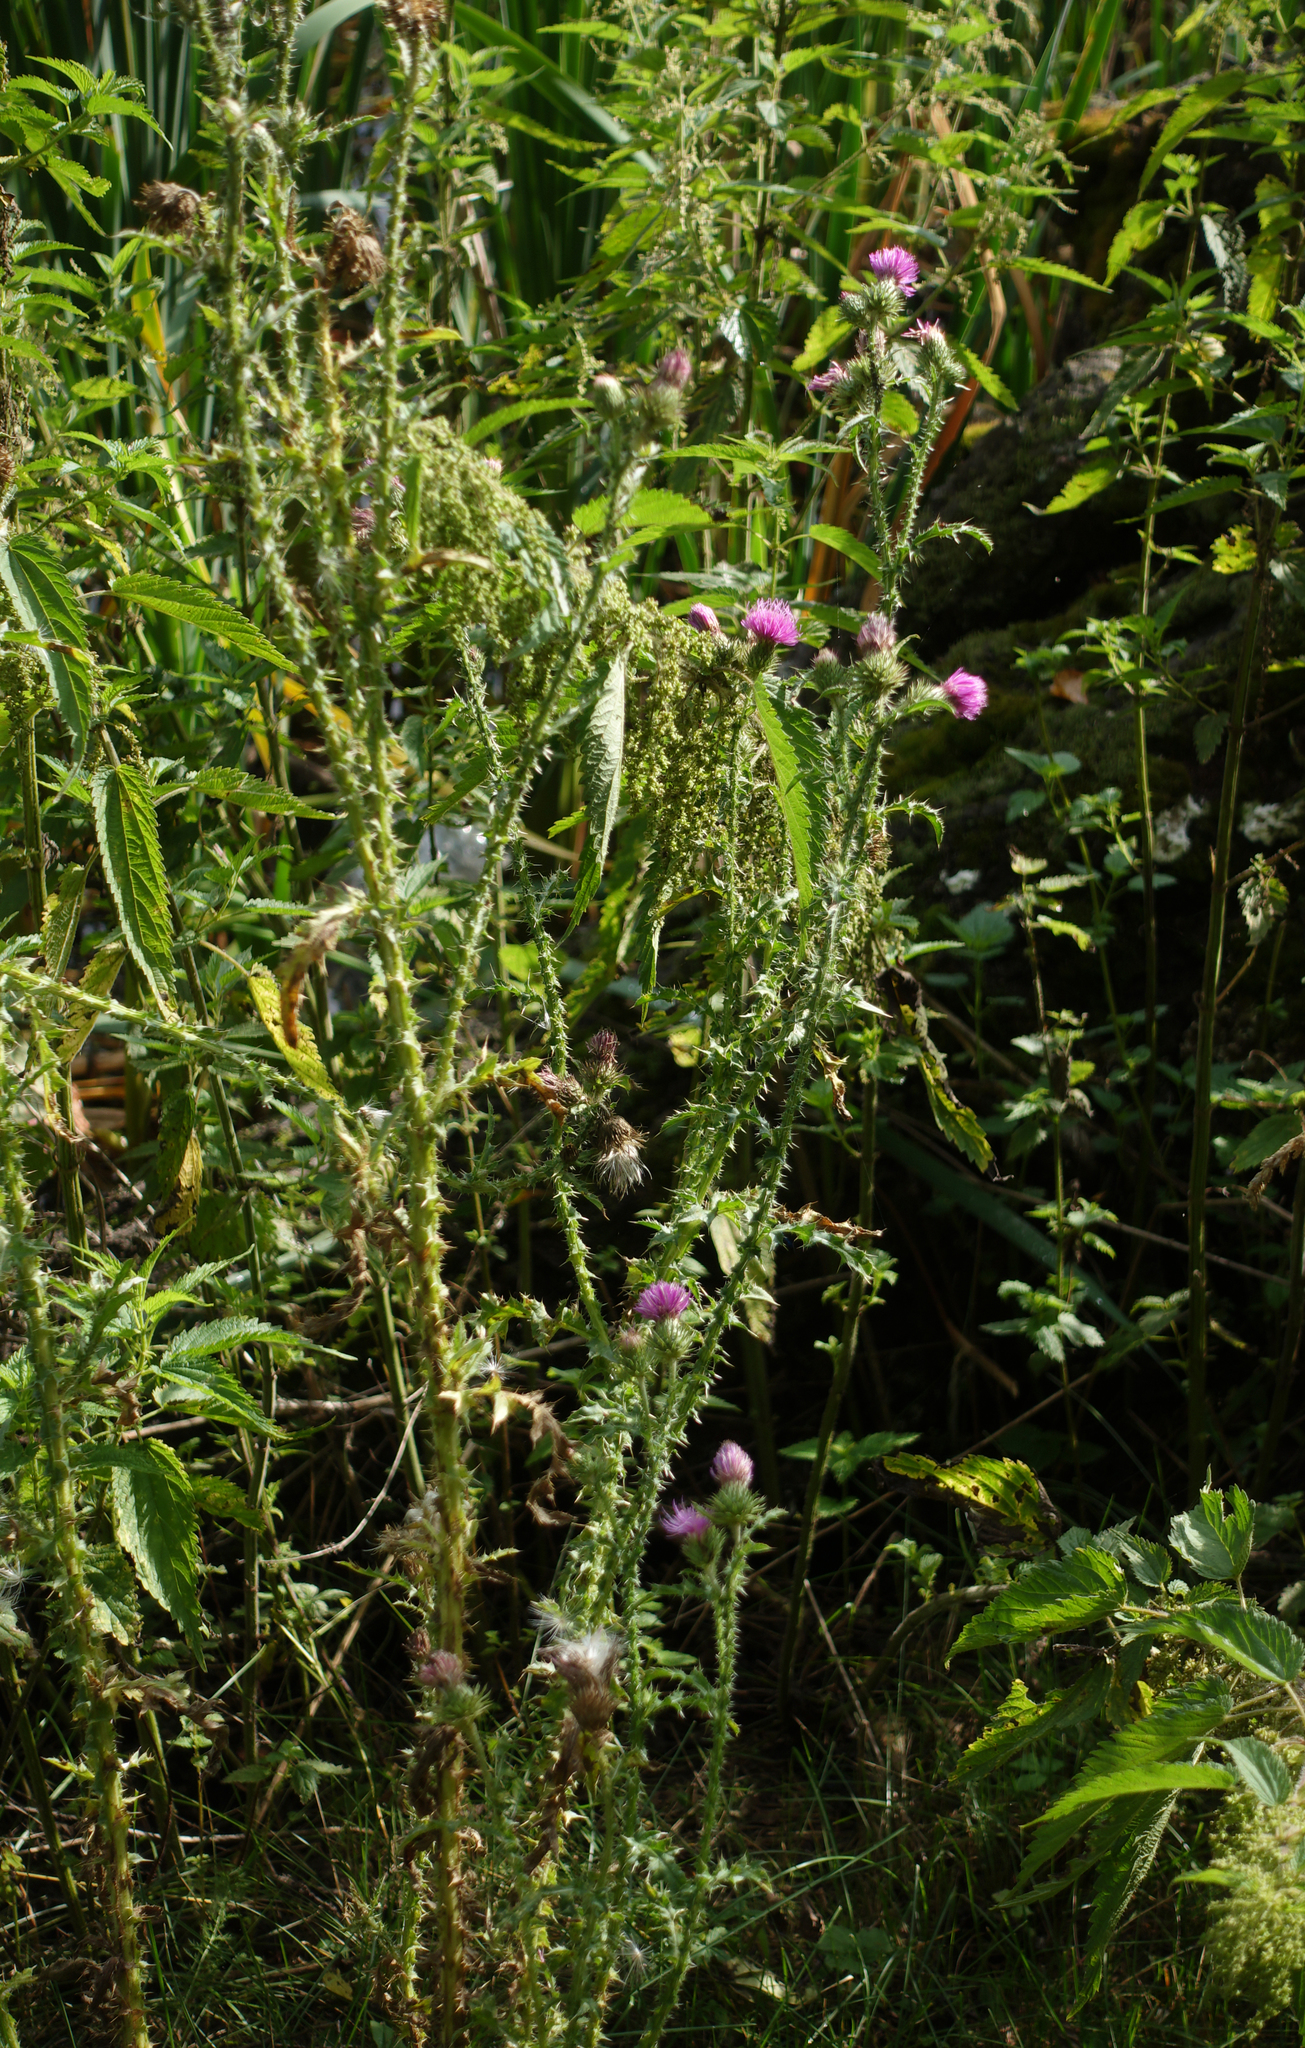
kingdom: Plantae
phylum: Tracheophyta
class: Magnoliopsida
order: Asterales
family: Asteraceae
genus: Carduus
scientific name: Carduus crispus
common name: Welted thistle
